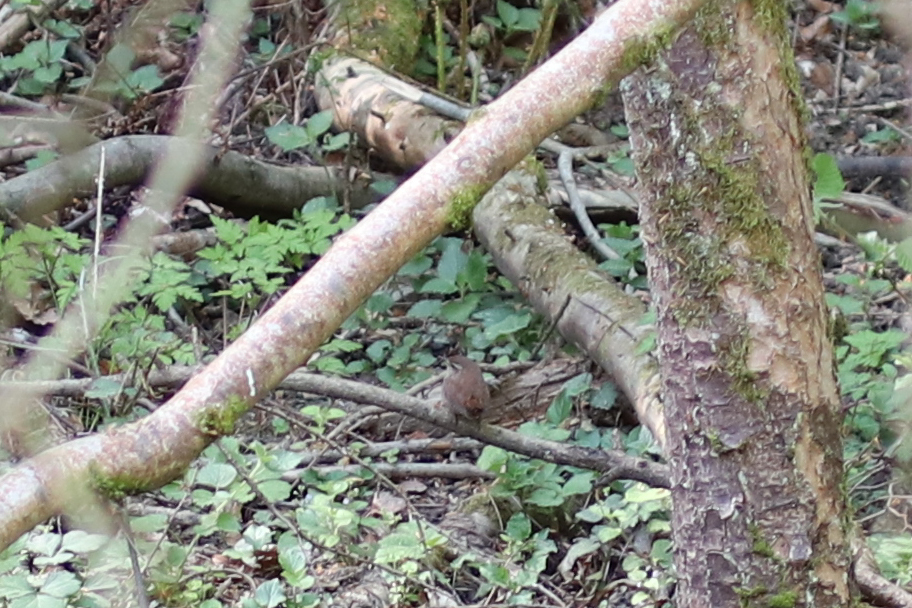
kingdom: Animalia
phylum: Chordata
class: Aves
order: Passeriformes
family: Troglodytidae
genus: Troglodytes
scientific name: Troglodytes troglodytes
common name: Eurasian wren
